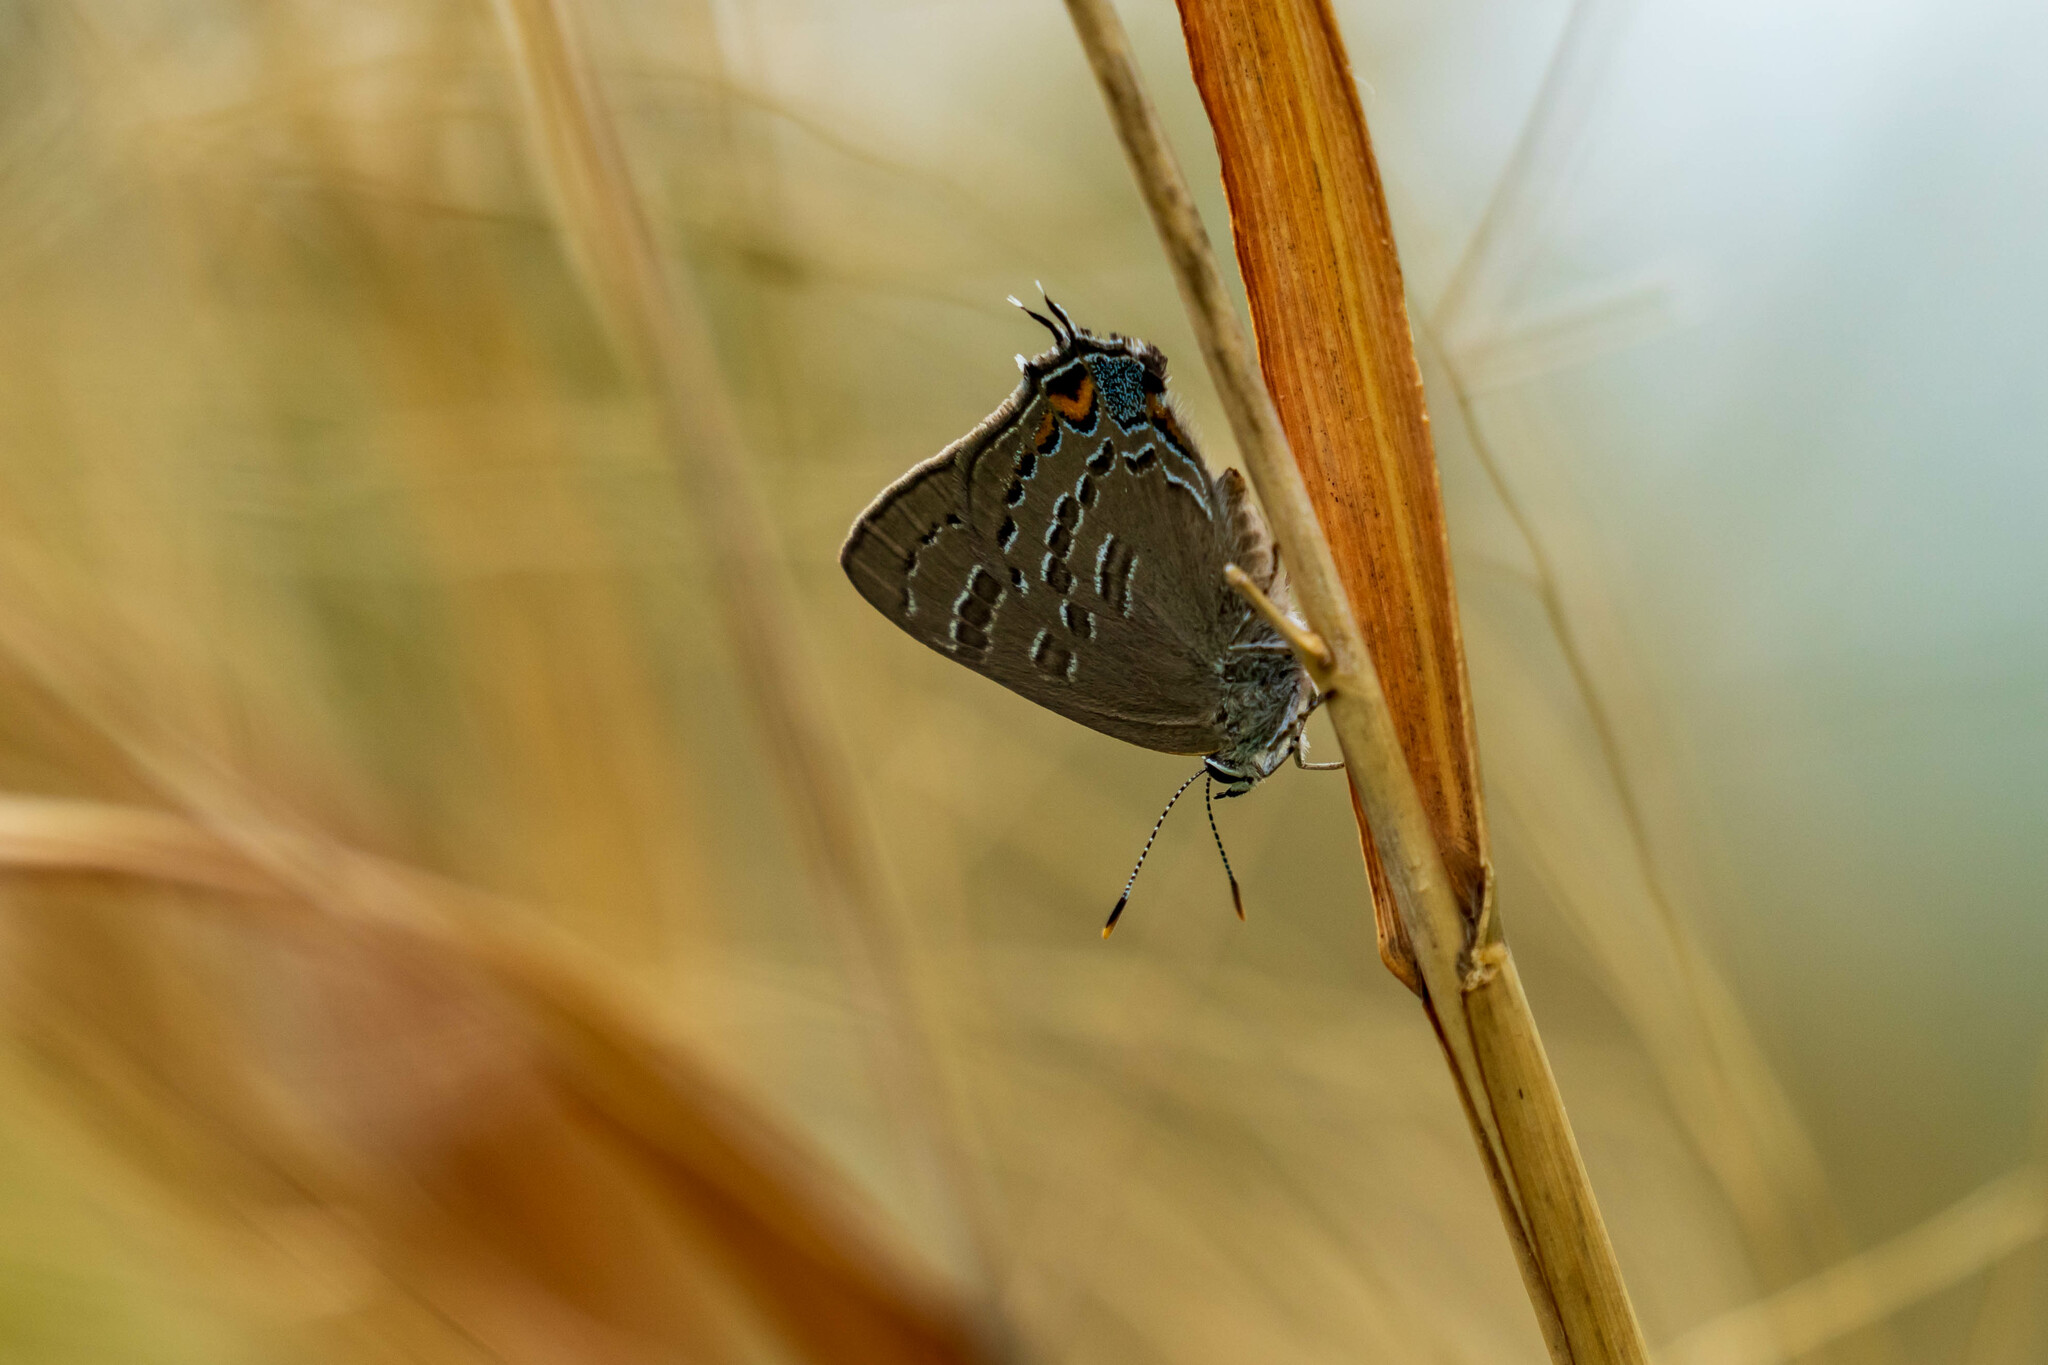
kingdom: Animalia
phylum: Arthropoda
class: Insecta
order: Lepidoptera
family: Lycaenidae
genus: Satyrium
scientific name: Satyrium calanus
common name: Banded hairstreak
